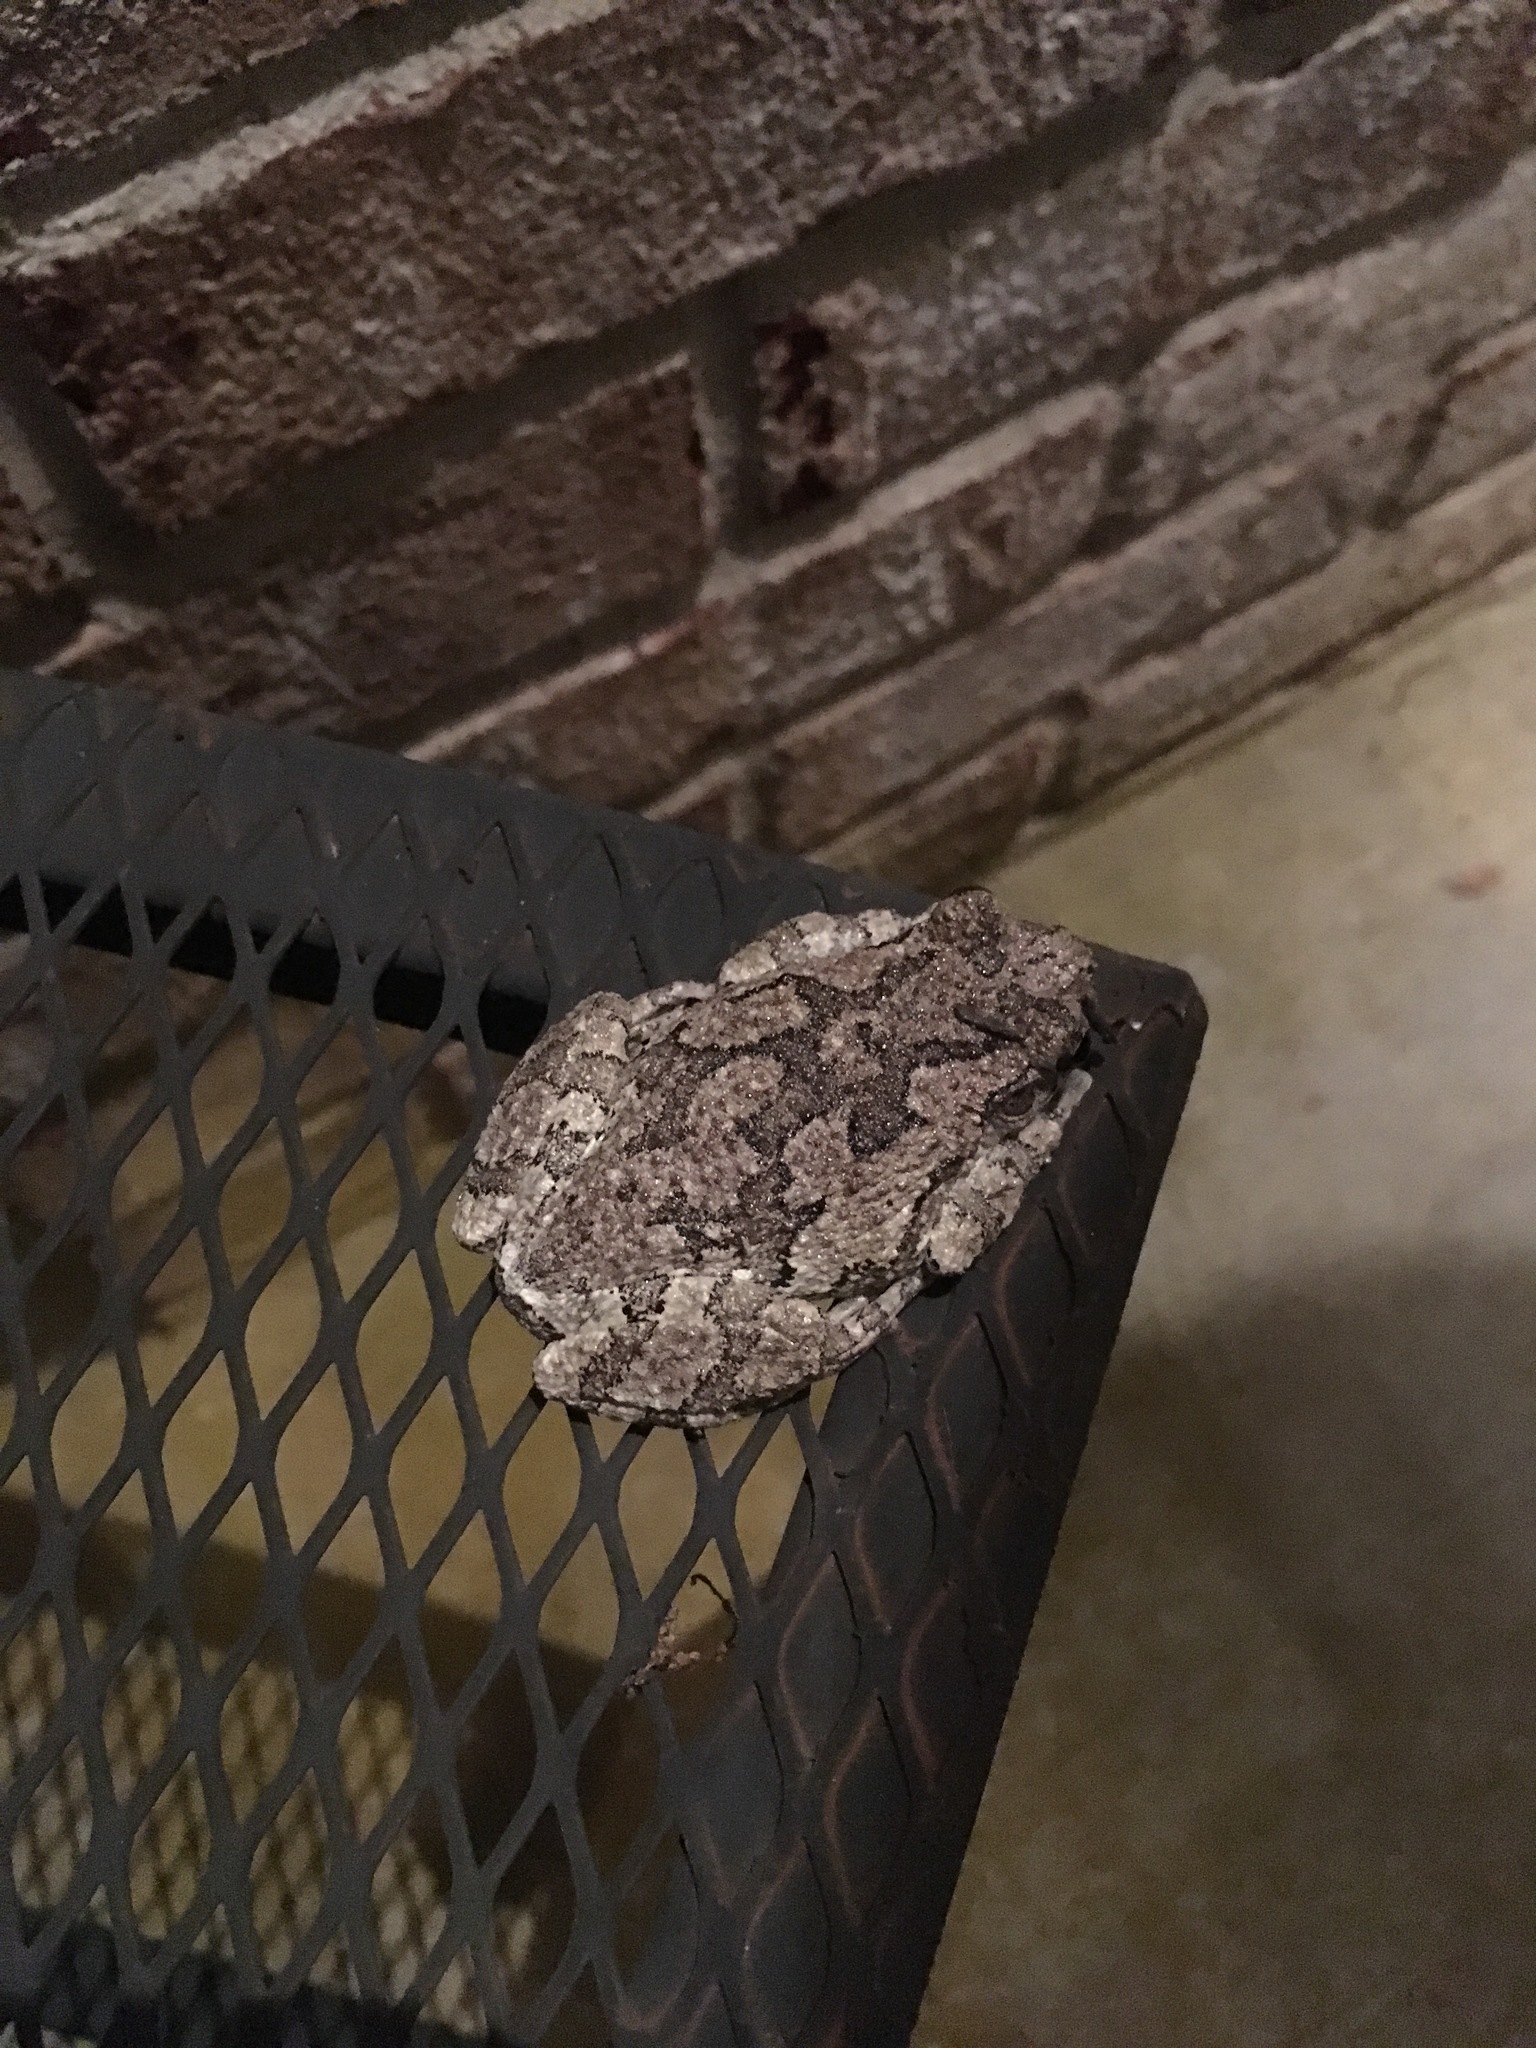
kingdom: Animalia
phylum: Chordata
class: Amphibia
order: Anura
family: Hylidae
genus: Dryophytes
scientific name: Dryophytes versicolor
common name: Gray treefrog
